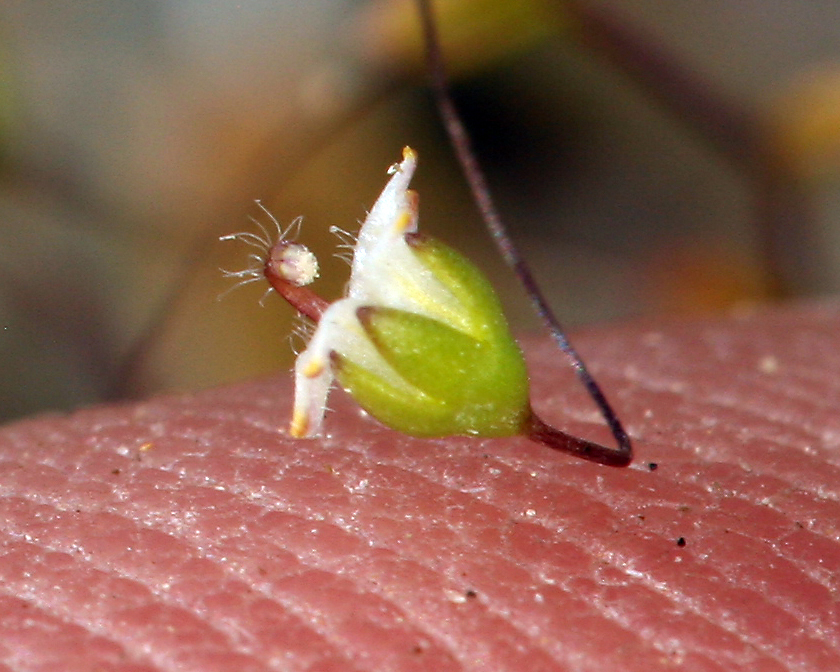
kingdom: Plantae
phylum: Tracheophyta
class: Magnoliopsida
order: Asterales
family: Campanulaceae
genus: Nemacladus
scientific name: Nemacladus eastwoodiae
